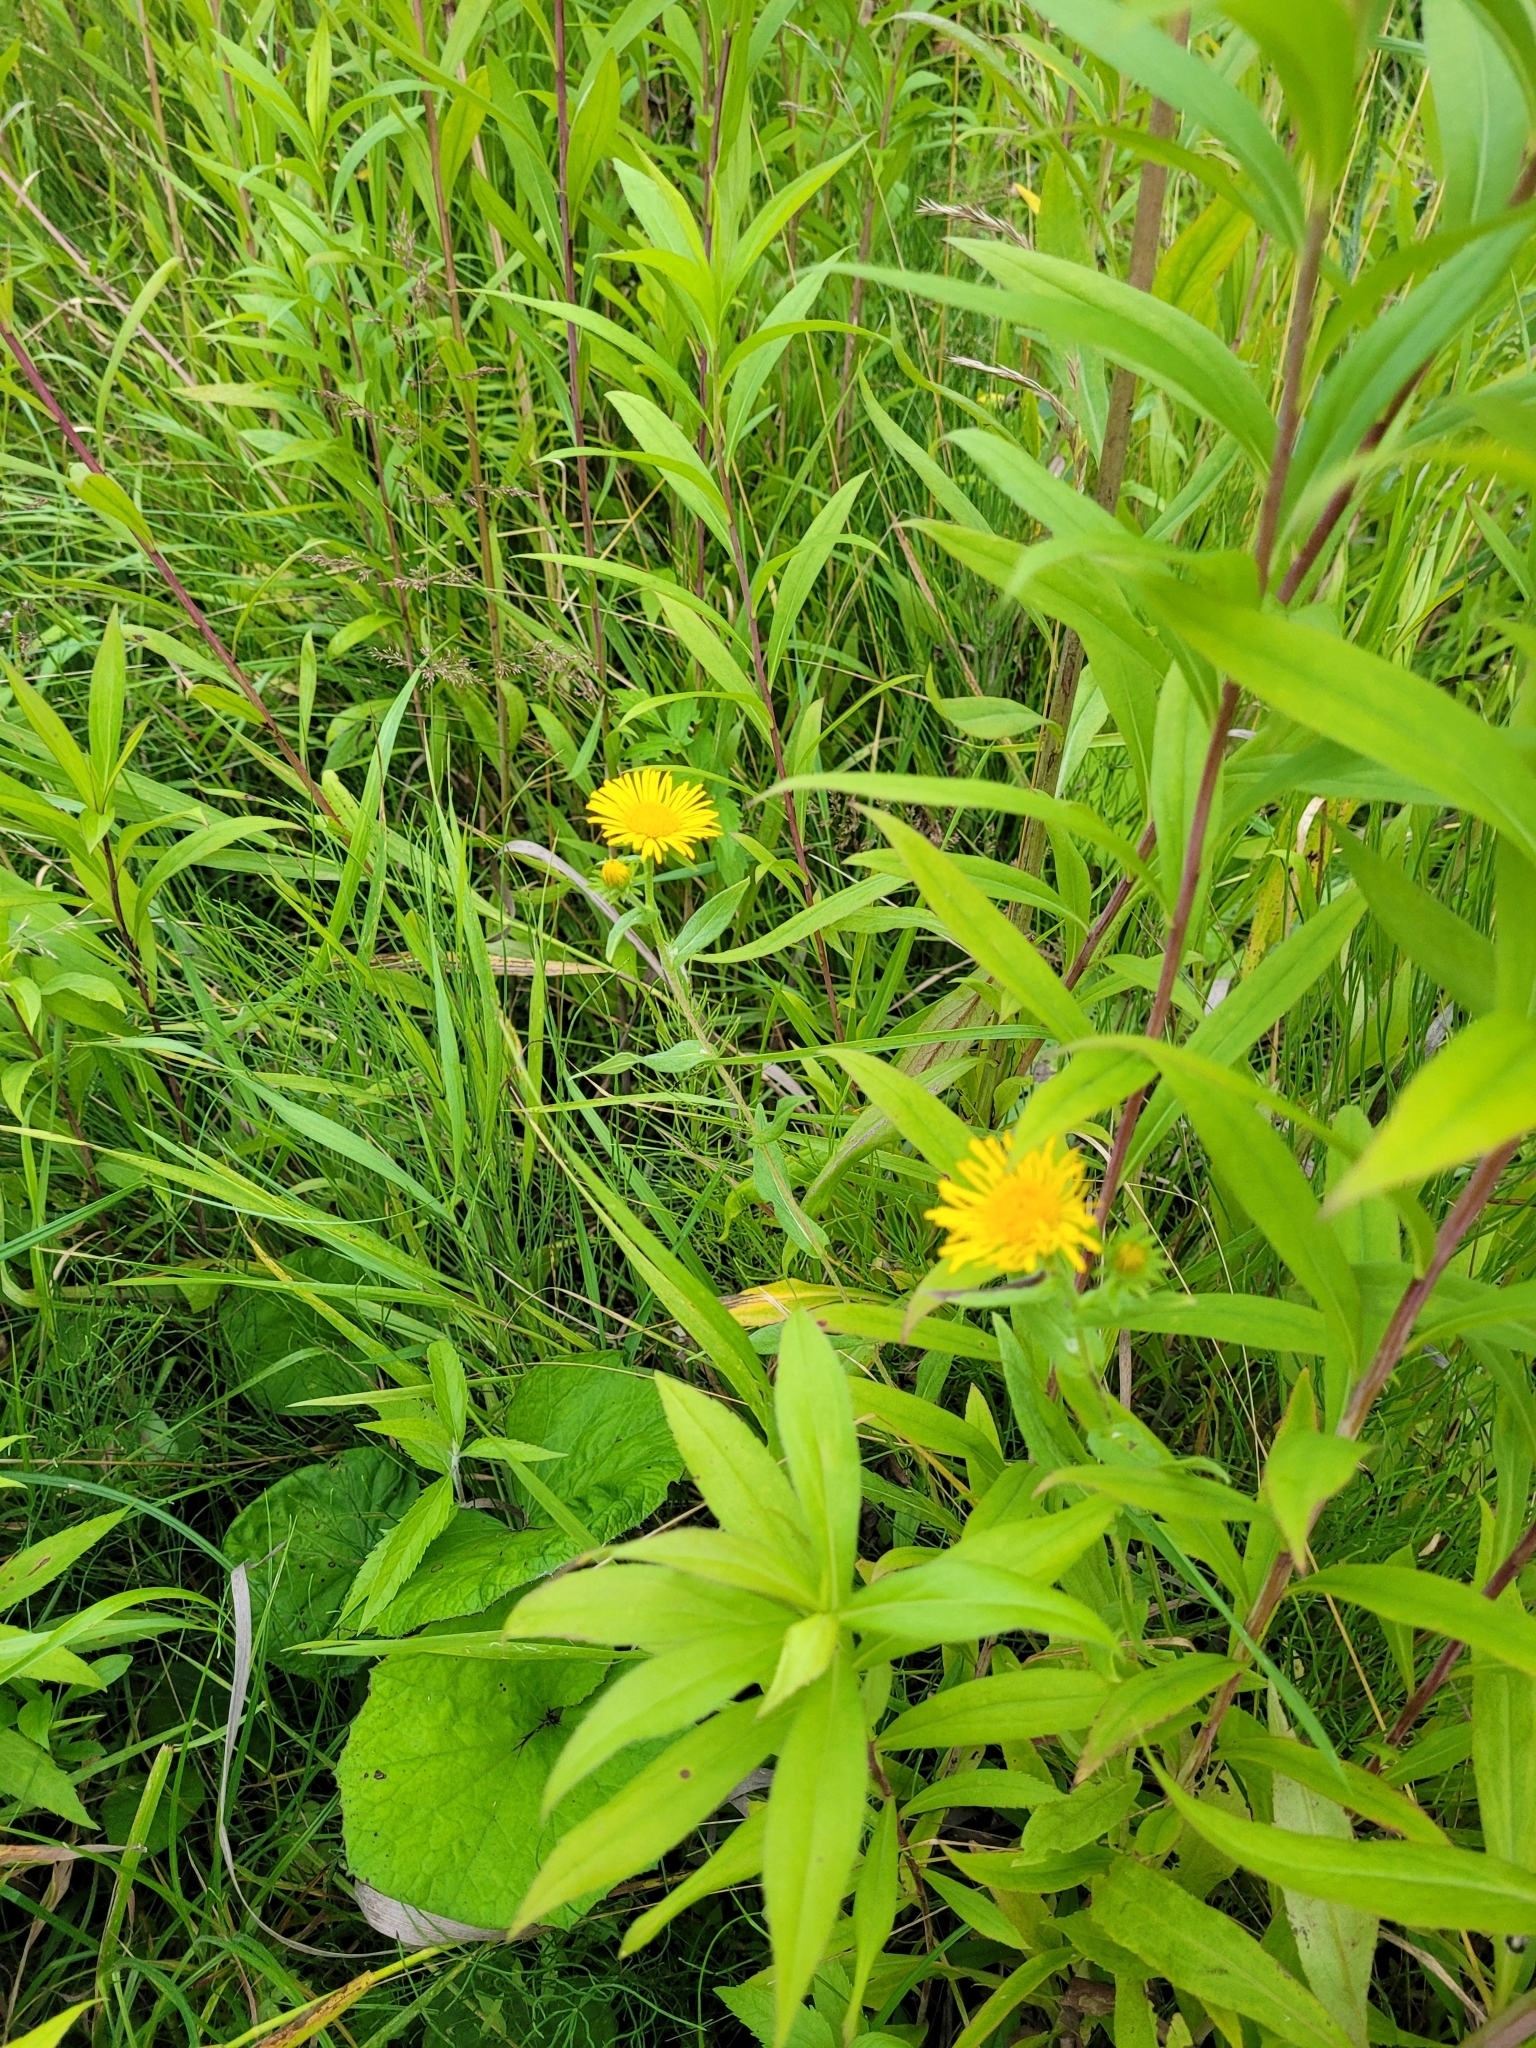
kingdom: Plantae
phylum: Tracheophyta
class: Magnoliopsida
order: Asterales
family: Asteraceae
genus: Pentanema
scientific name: Pentanema britannicum
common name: British elecampane
